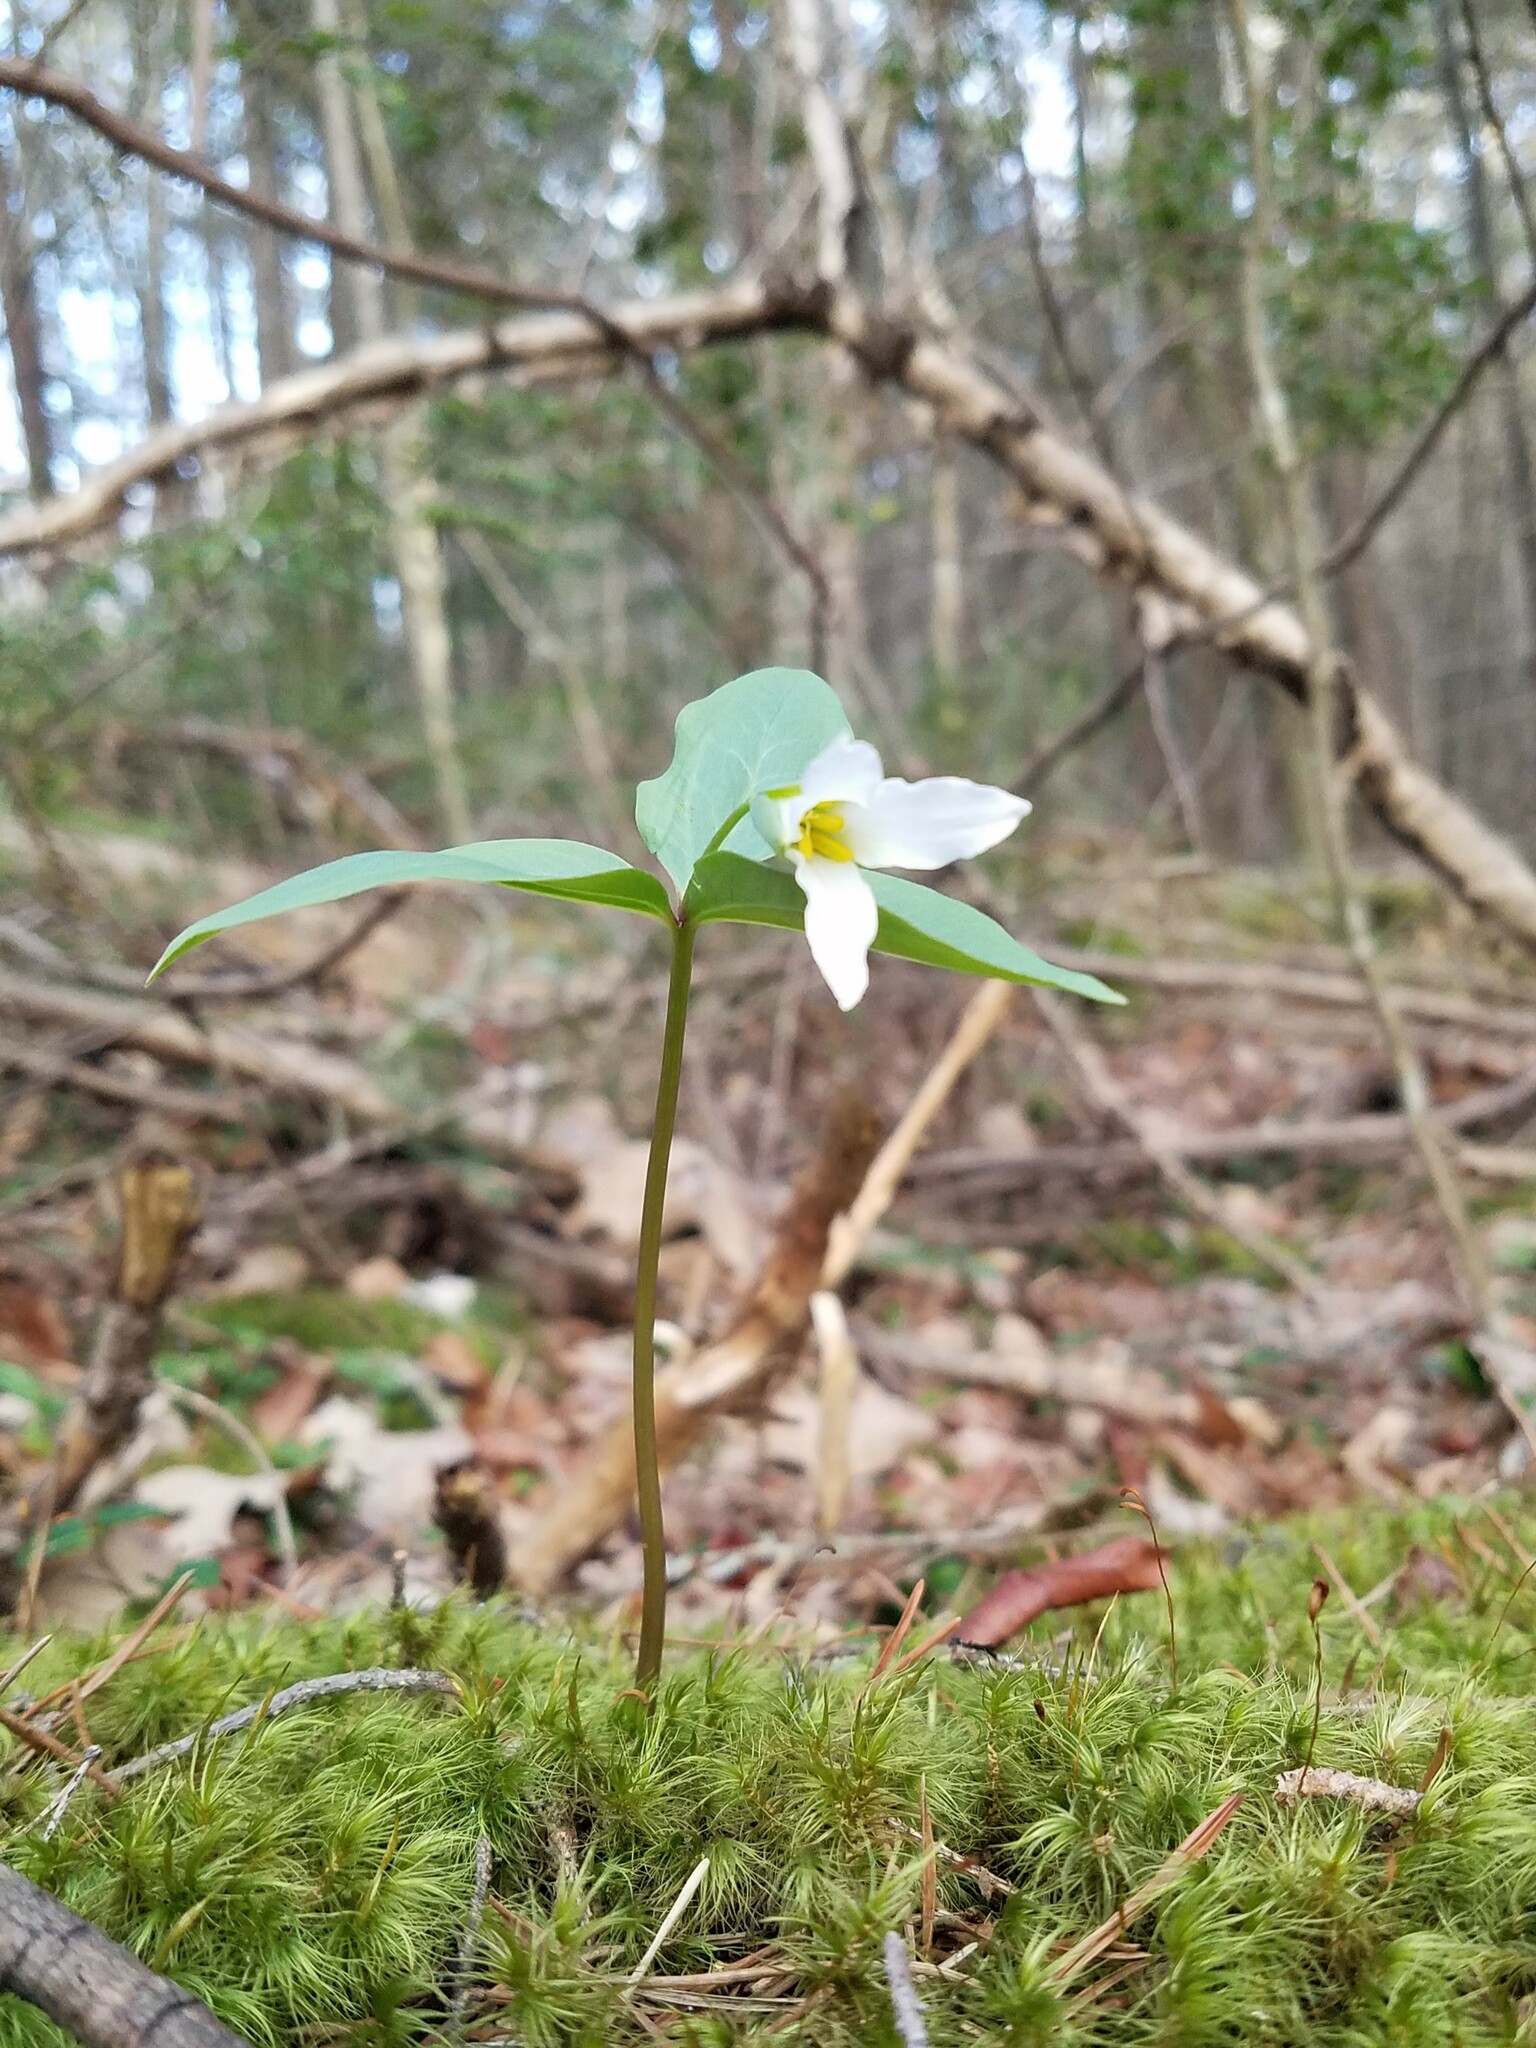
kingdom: Plantae
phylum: Tracheophyta
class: Liliopsida
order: Liliales
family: Melanthiaceae
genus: Trillium
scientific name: Trillium persistens
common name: Persistent trillium
